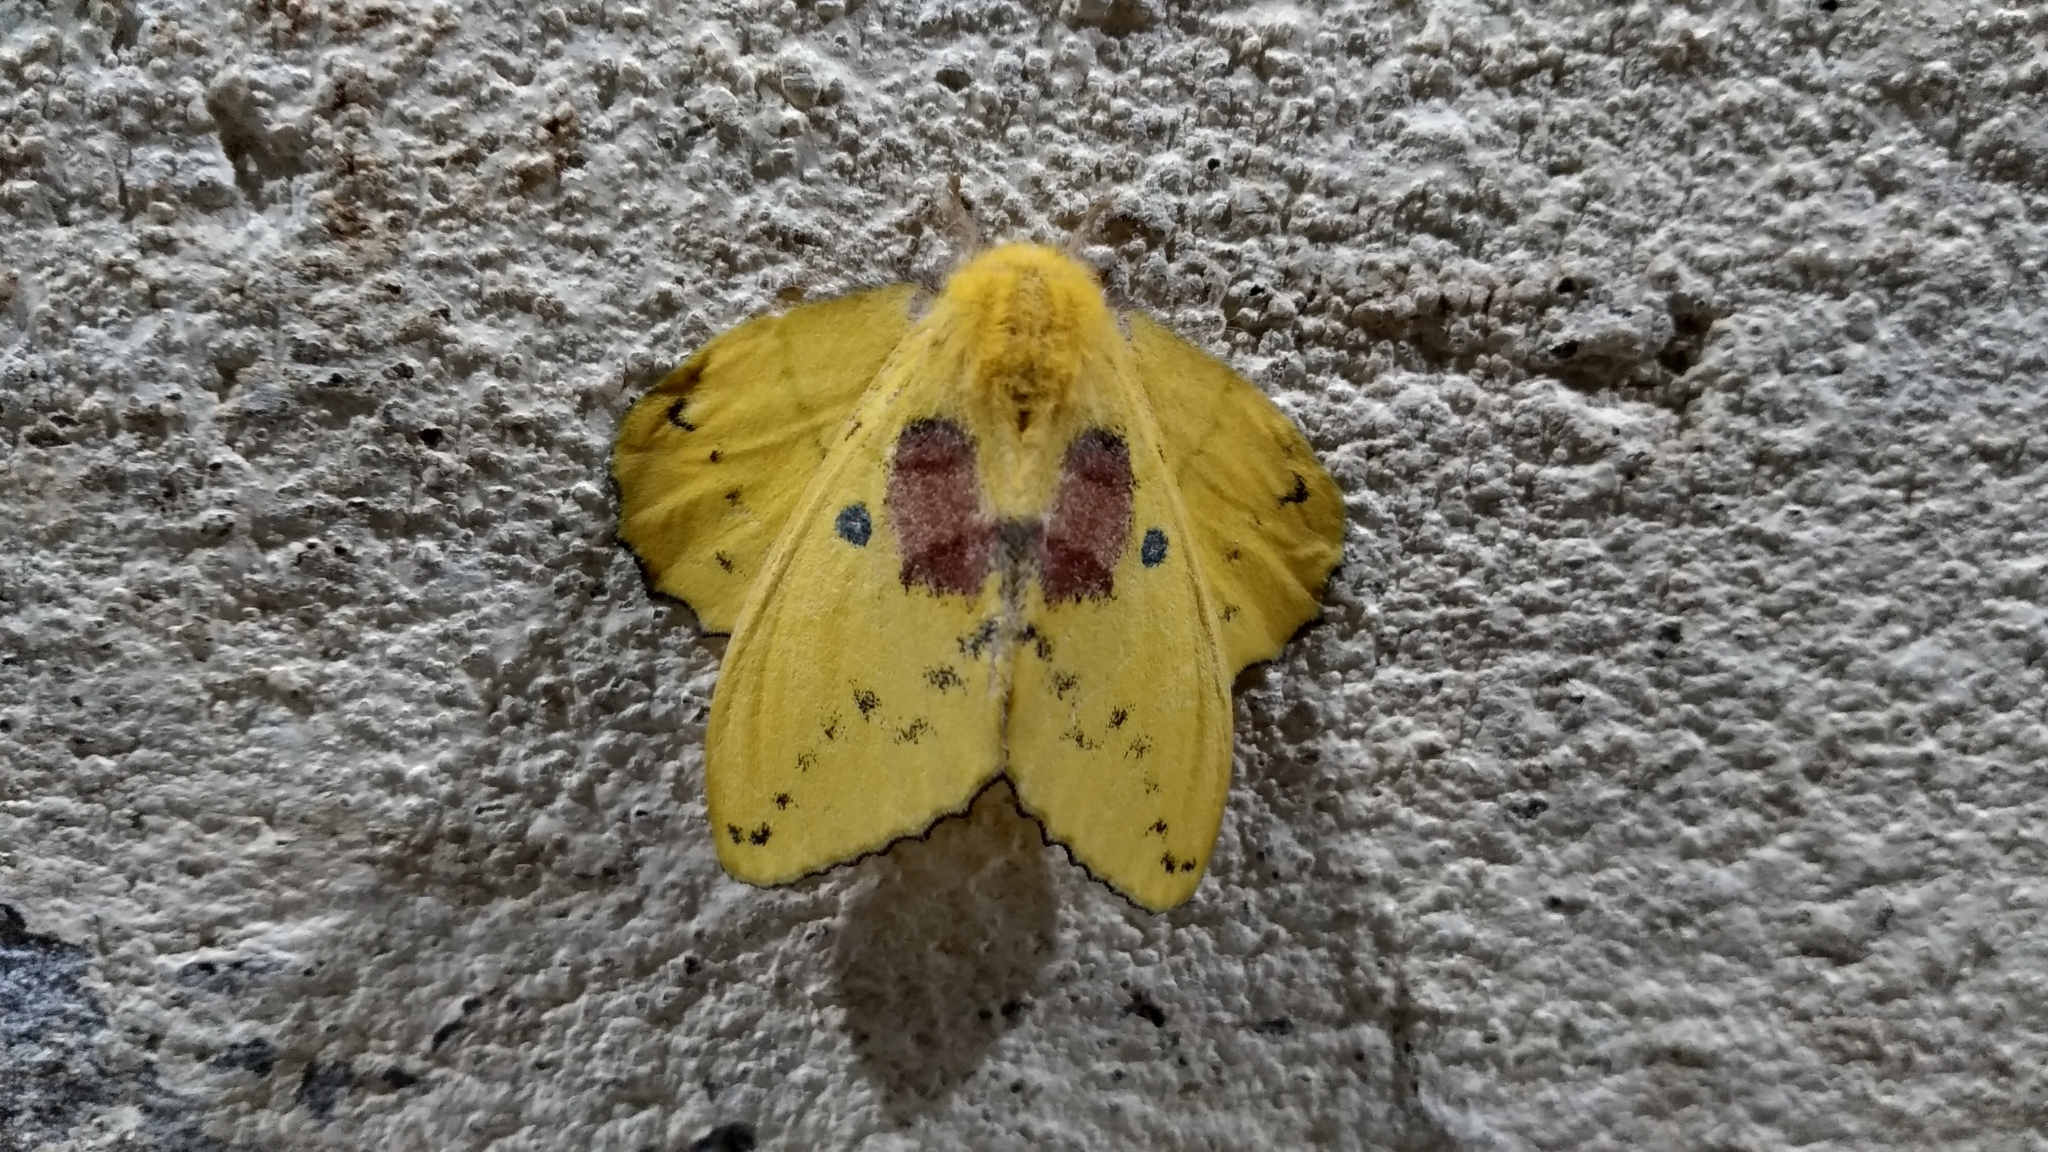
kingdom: Animalia
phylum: Arthropoda
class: Insecta
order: Lepidoptera
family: Lasiocampidae
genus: Trabala
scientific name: Trabala vishnou
